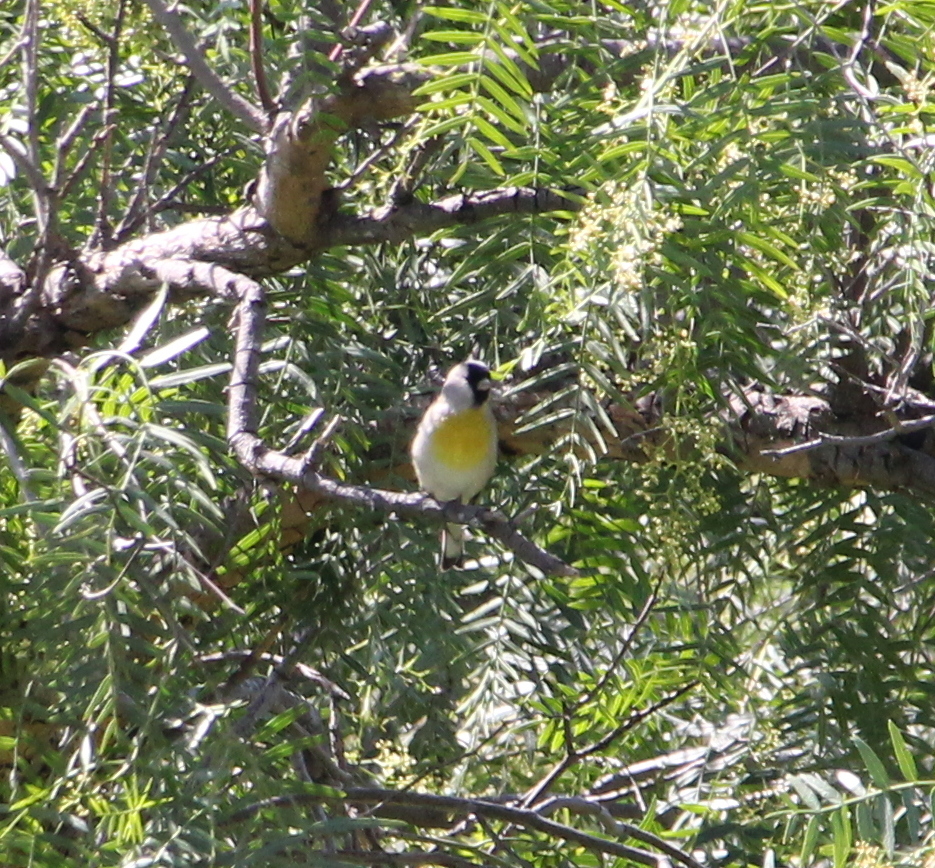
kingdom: Animalia
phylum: Chordata
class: Aves
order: Passeriformes
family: Fringillidae
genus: Spinus
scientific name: Spinus lawrencei
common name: Lawrence's goldfinch
